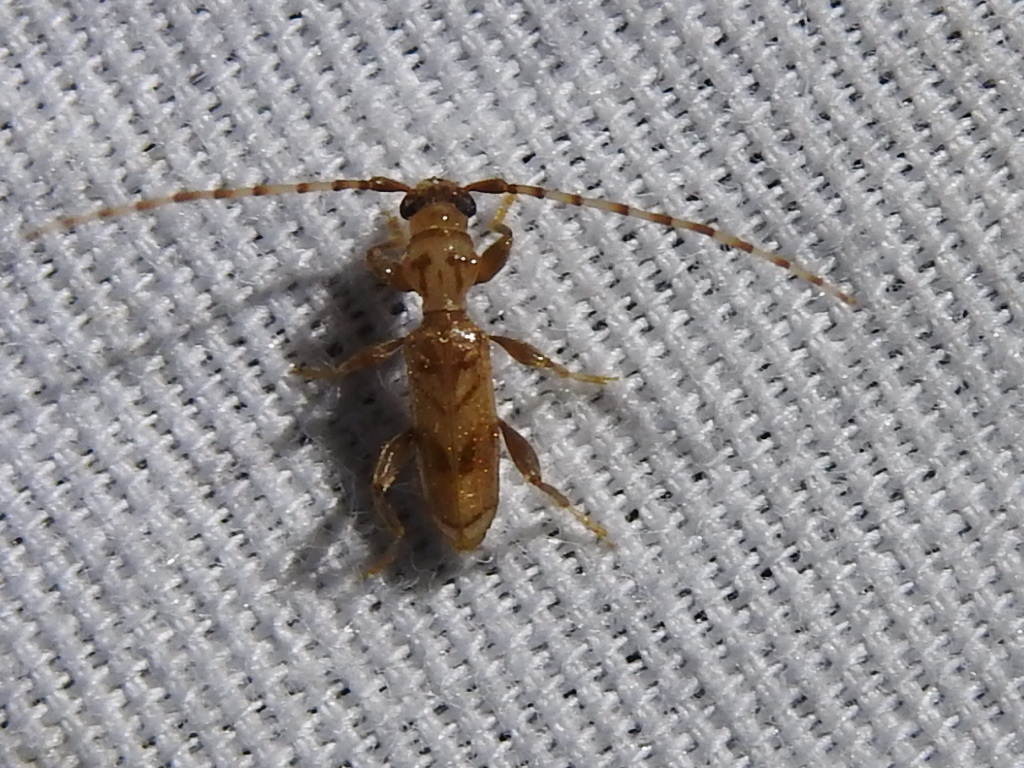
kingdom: Animalia
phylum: Arthropoda
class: Insecta
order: Coleoptera
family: Cerambycidae
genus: Obrium
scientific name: Obrium maculatum
